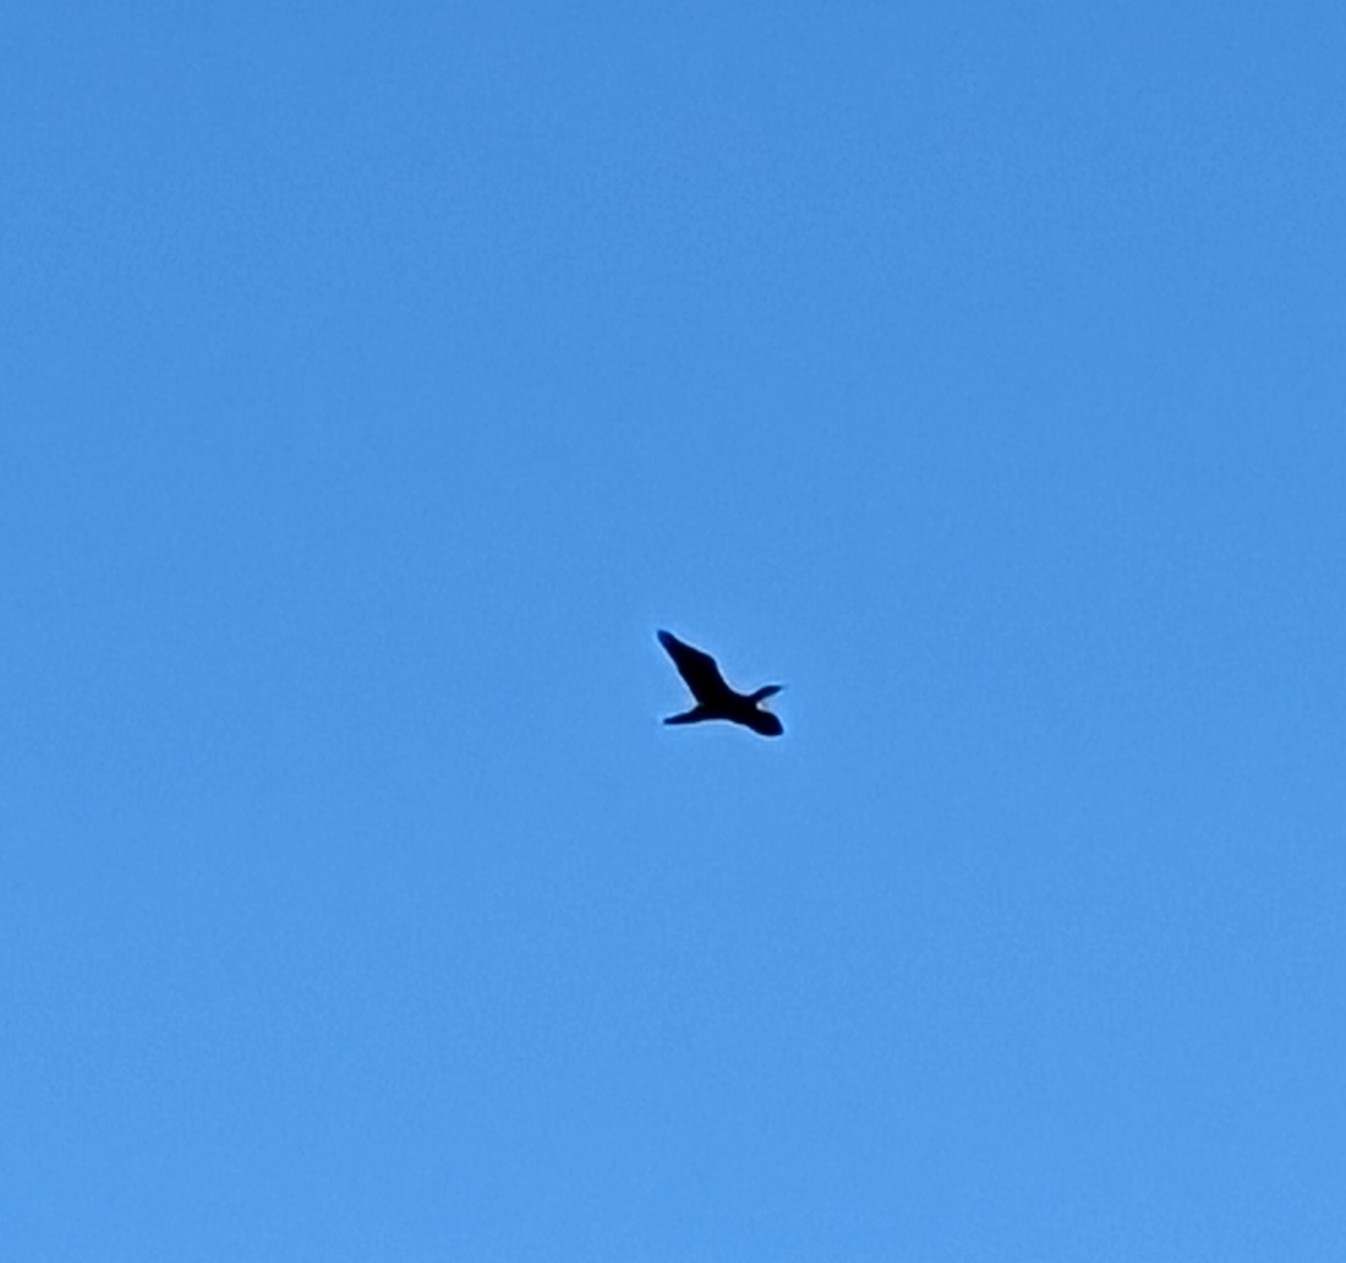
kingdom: Animalia
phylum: Chordata
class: Aves
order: Suliformes
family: Phalacrocoracidae
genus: Phalacrocorax
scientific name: Phalacrocorax carbo
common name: Great cormorant
